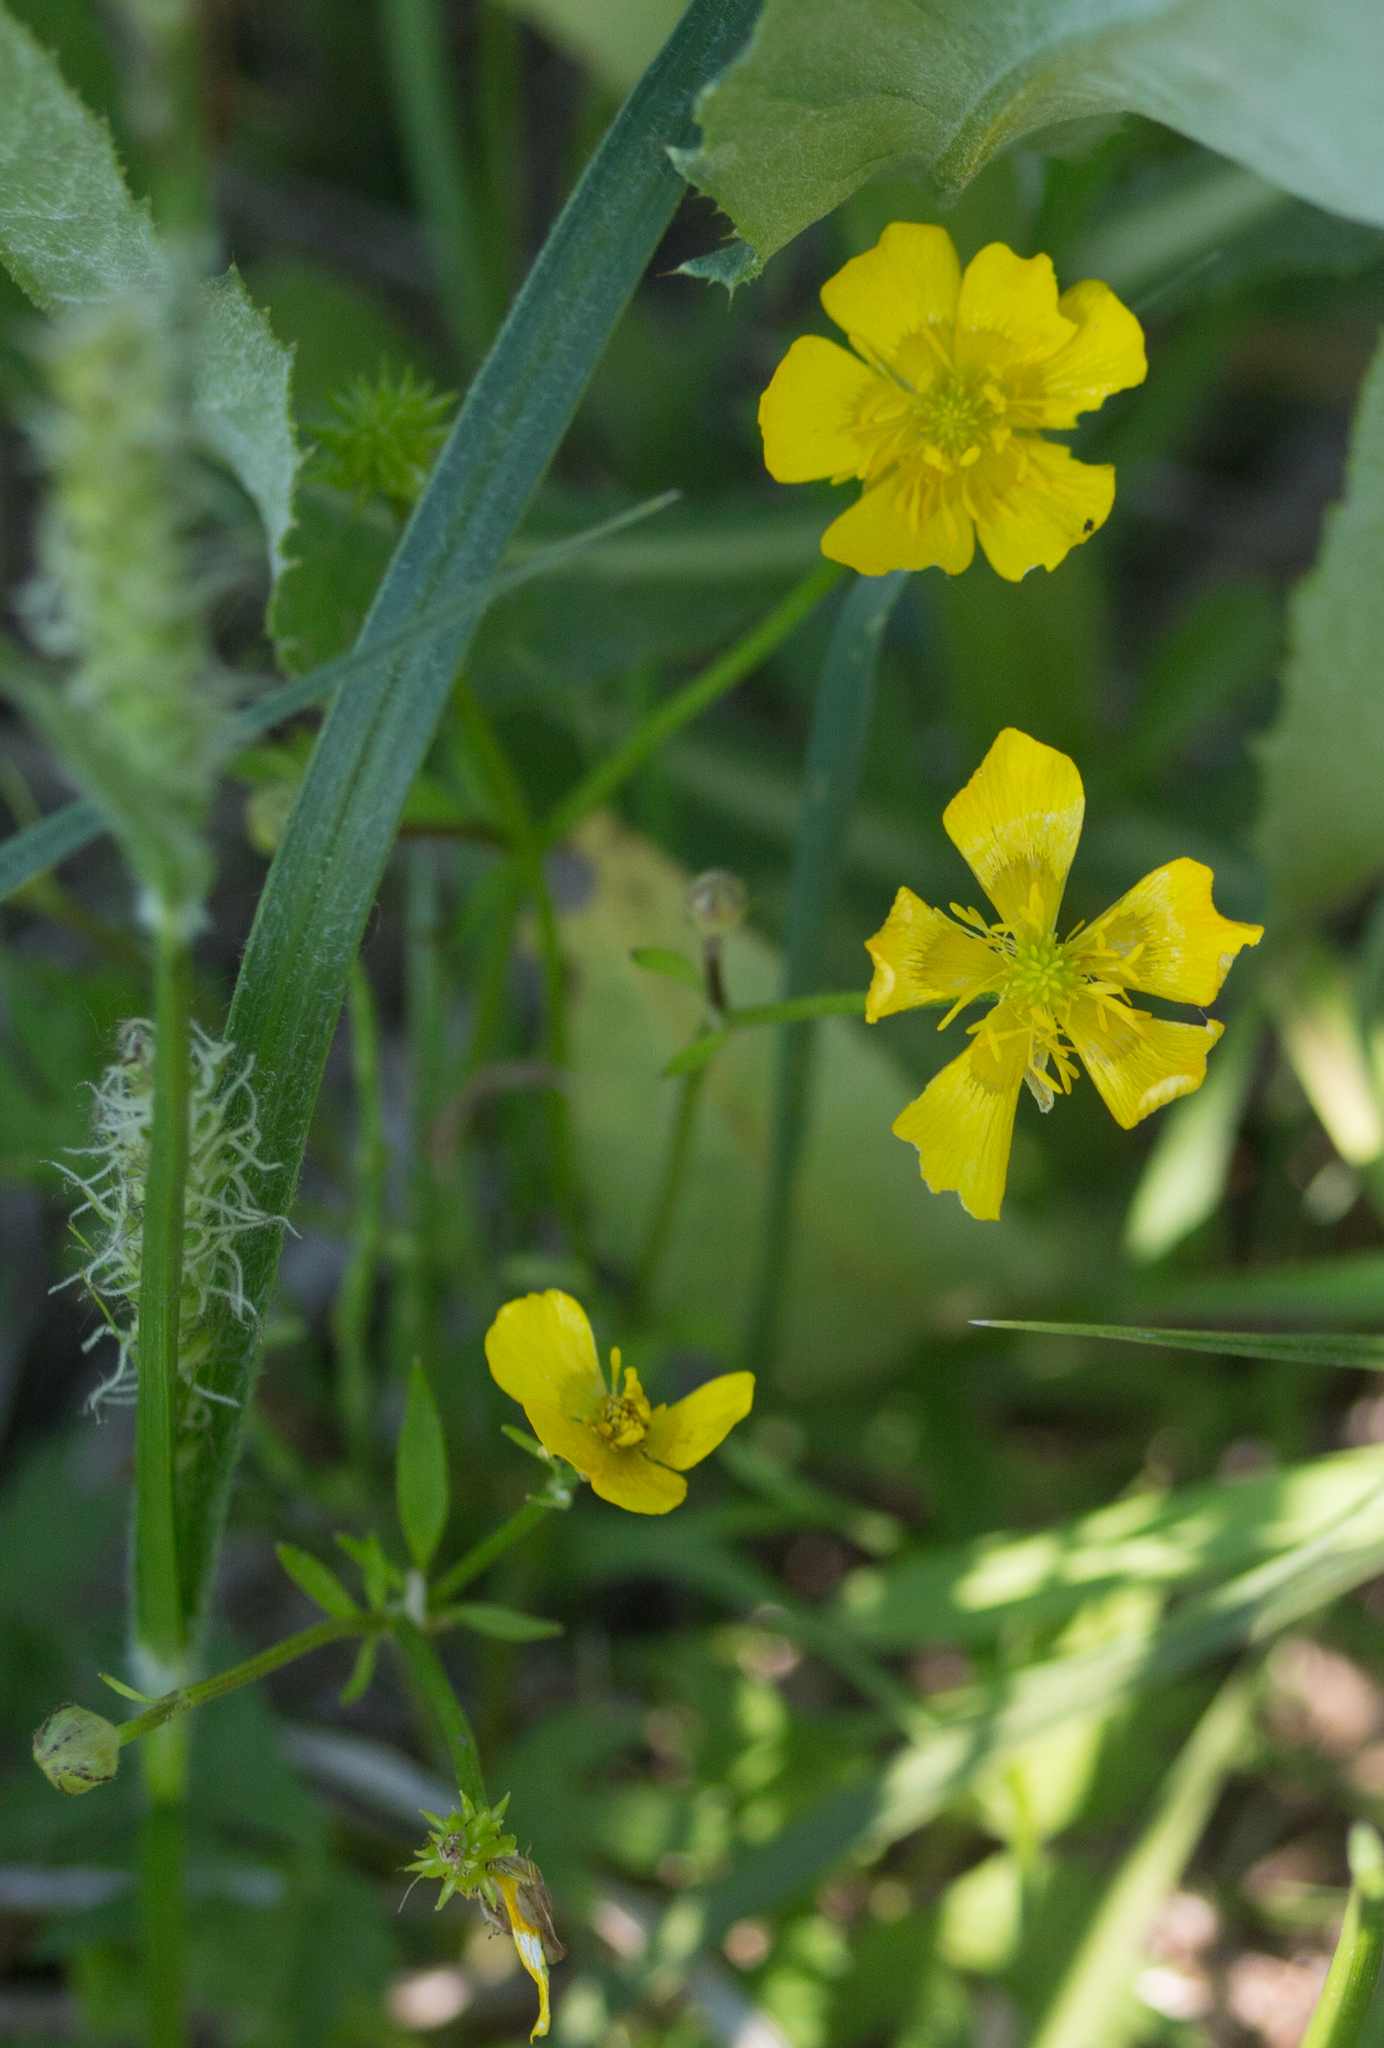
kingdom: Plantae
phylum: Tracheophyta
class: Magnoliopsida
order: Ranunculales
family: Ranunculaceae
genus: Ranunculus
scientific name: Ranunculus repens
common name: Creeping buttercup
